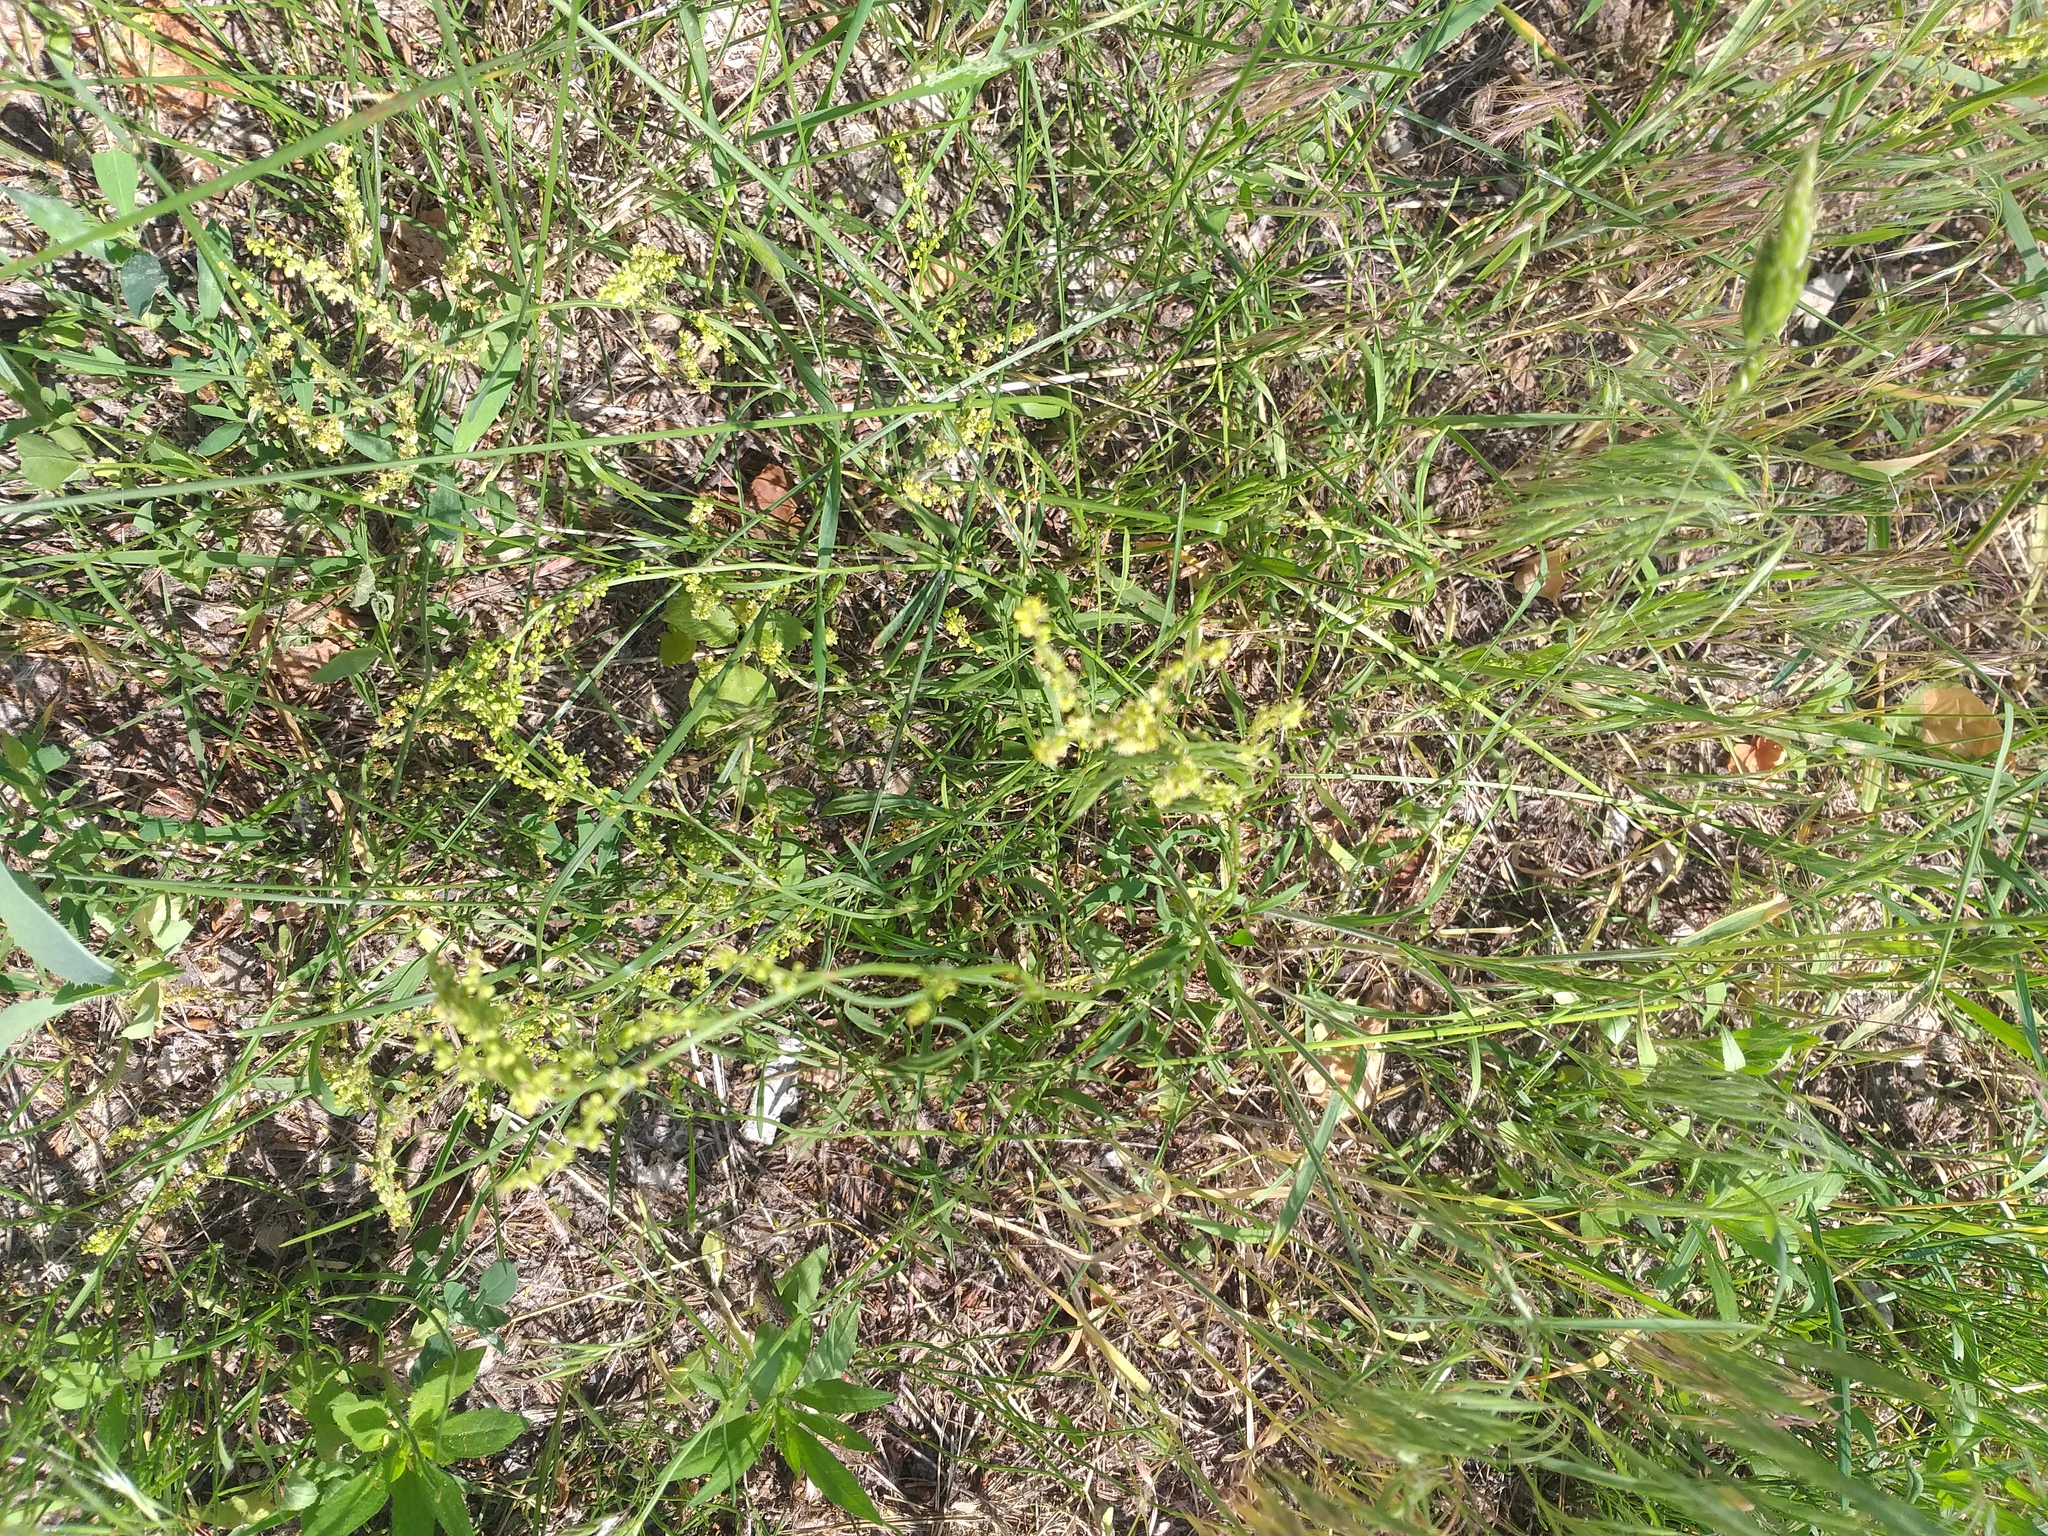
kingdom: Plantae
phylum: Tracheophyta
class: Magnoliopsida
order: Caryophyllales
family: Polygonaceae
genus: Rumex
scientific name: Rumex acetosella
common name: Common sheep sorrel
